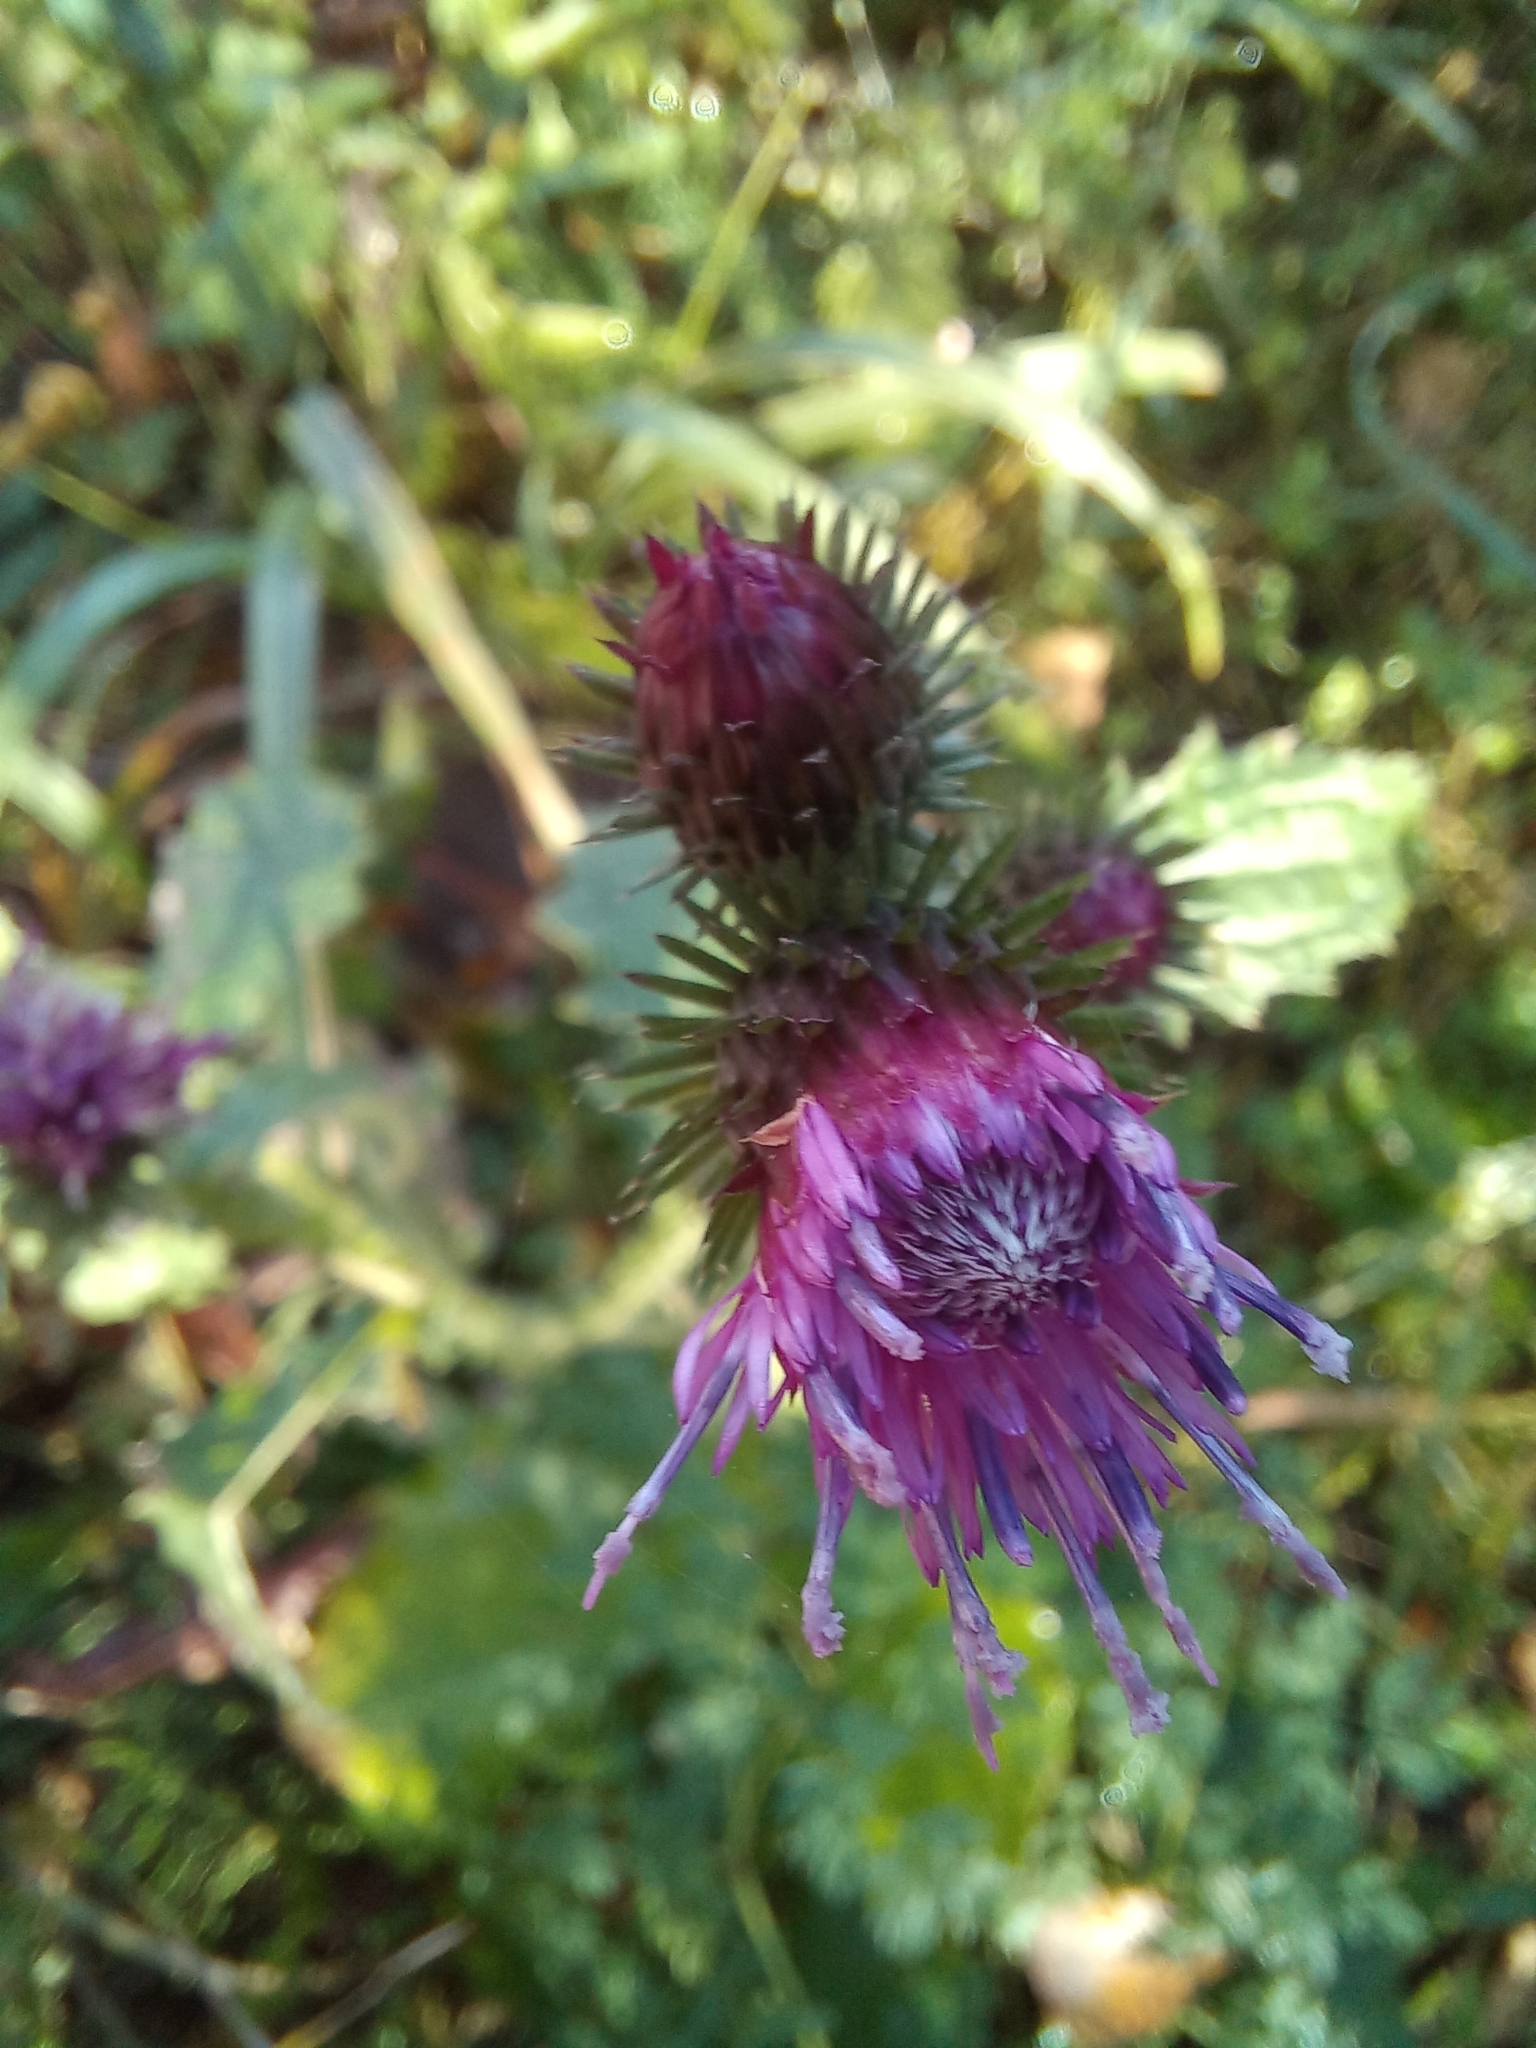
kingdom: Plantae
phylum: Tracheophyta
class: Magnoliopsida
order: Asterales
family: Asteraceae
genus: Carduus
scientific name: Carduus crispus
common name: Welted thistle
